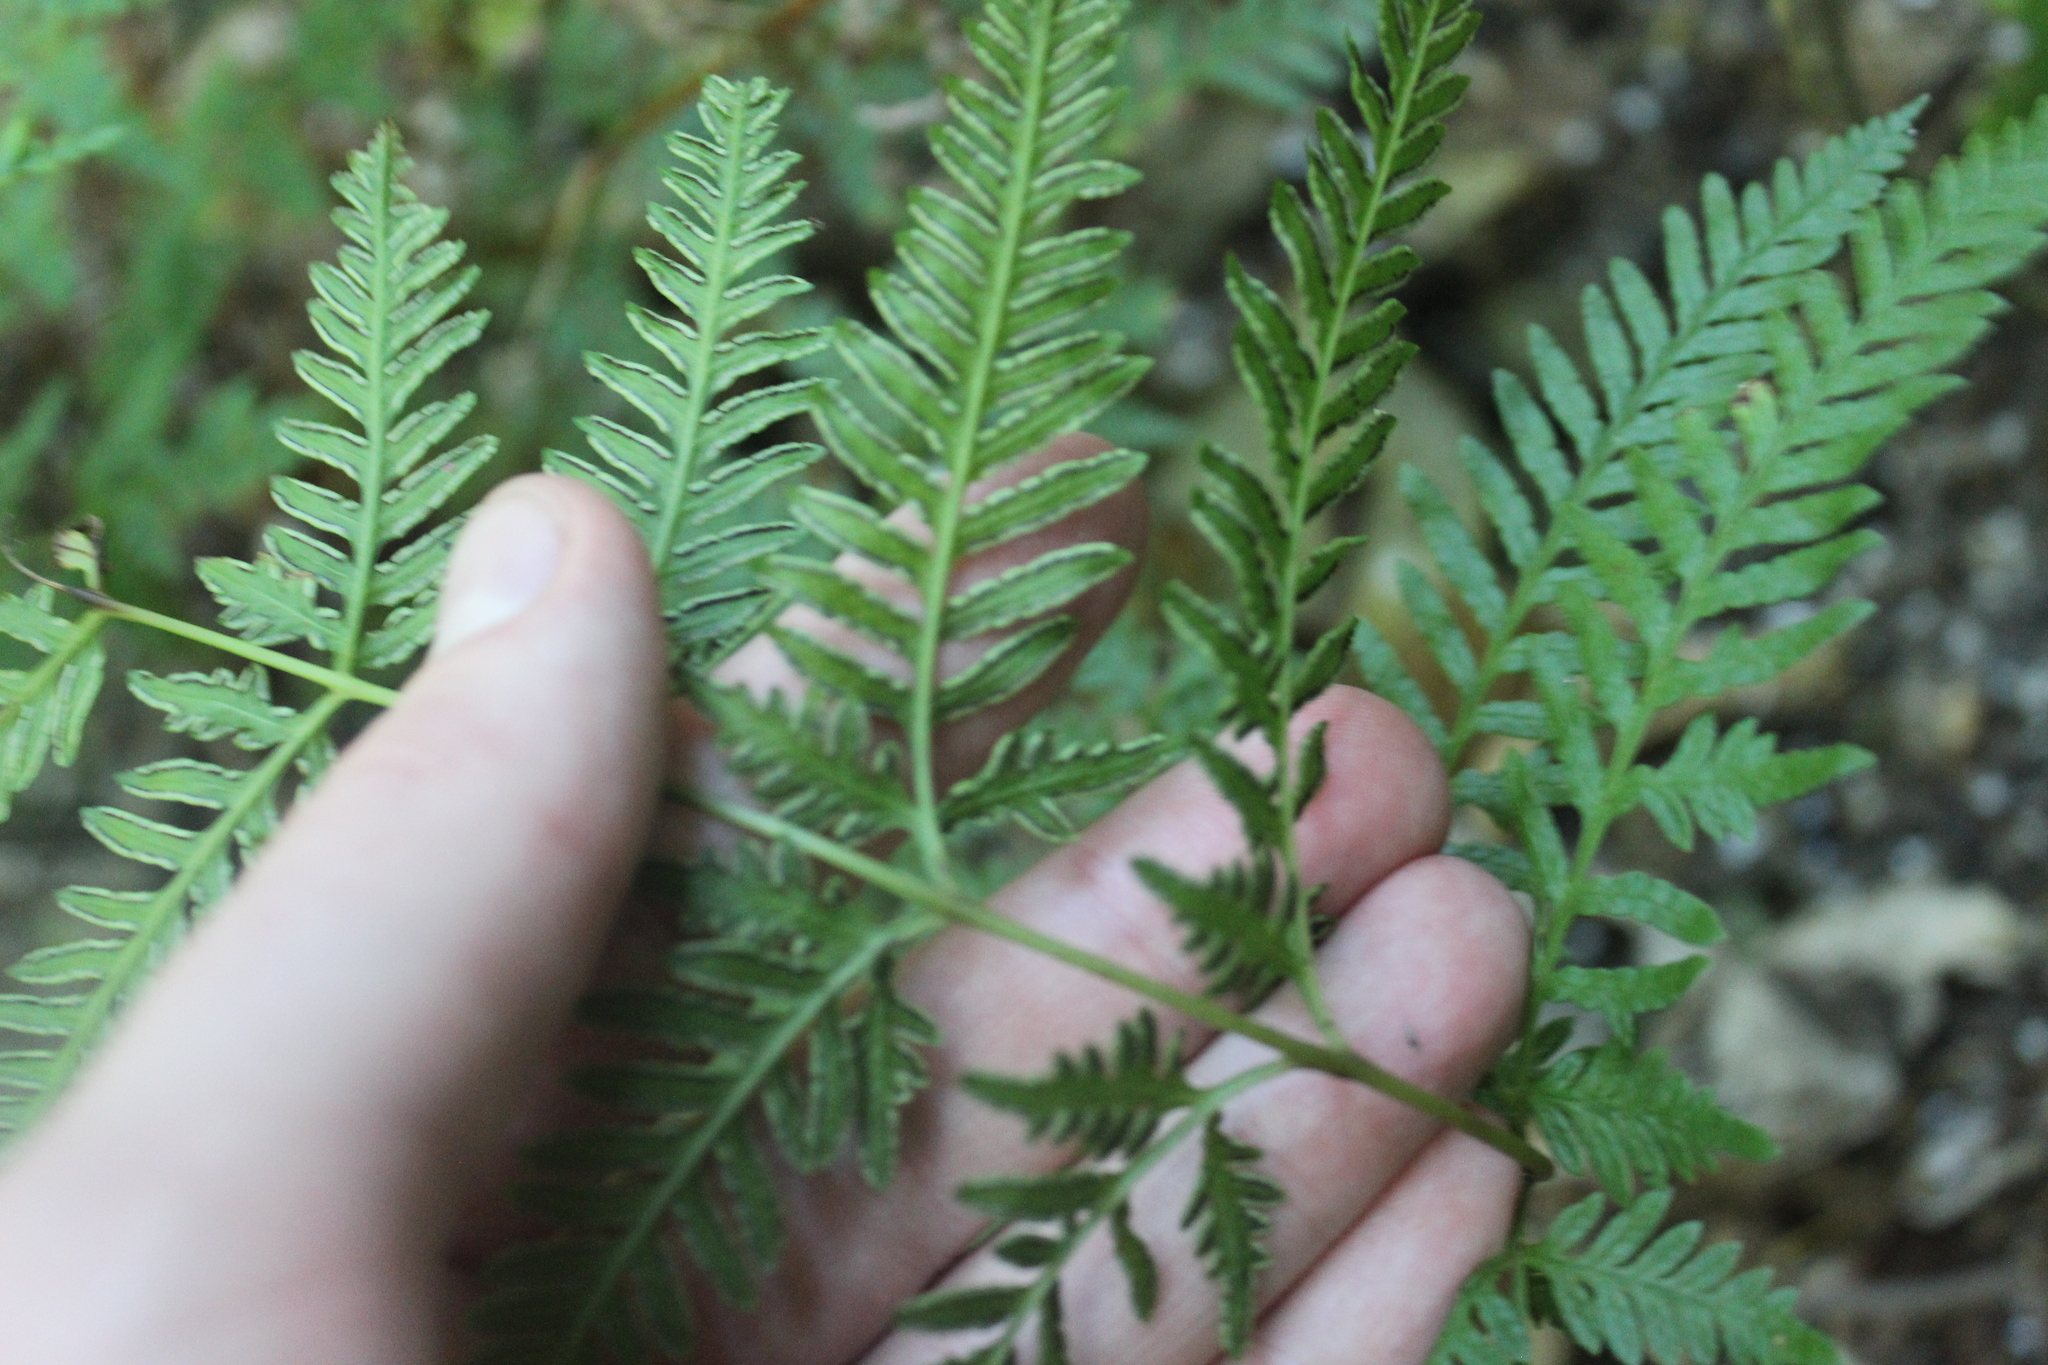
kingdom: Plantae
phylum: Tracheophyta
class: Polypodiopsida
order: Polypodiales
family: Pteridaceae
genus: Pteris
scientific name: Pteris tremula
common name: Australian brake
